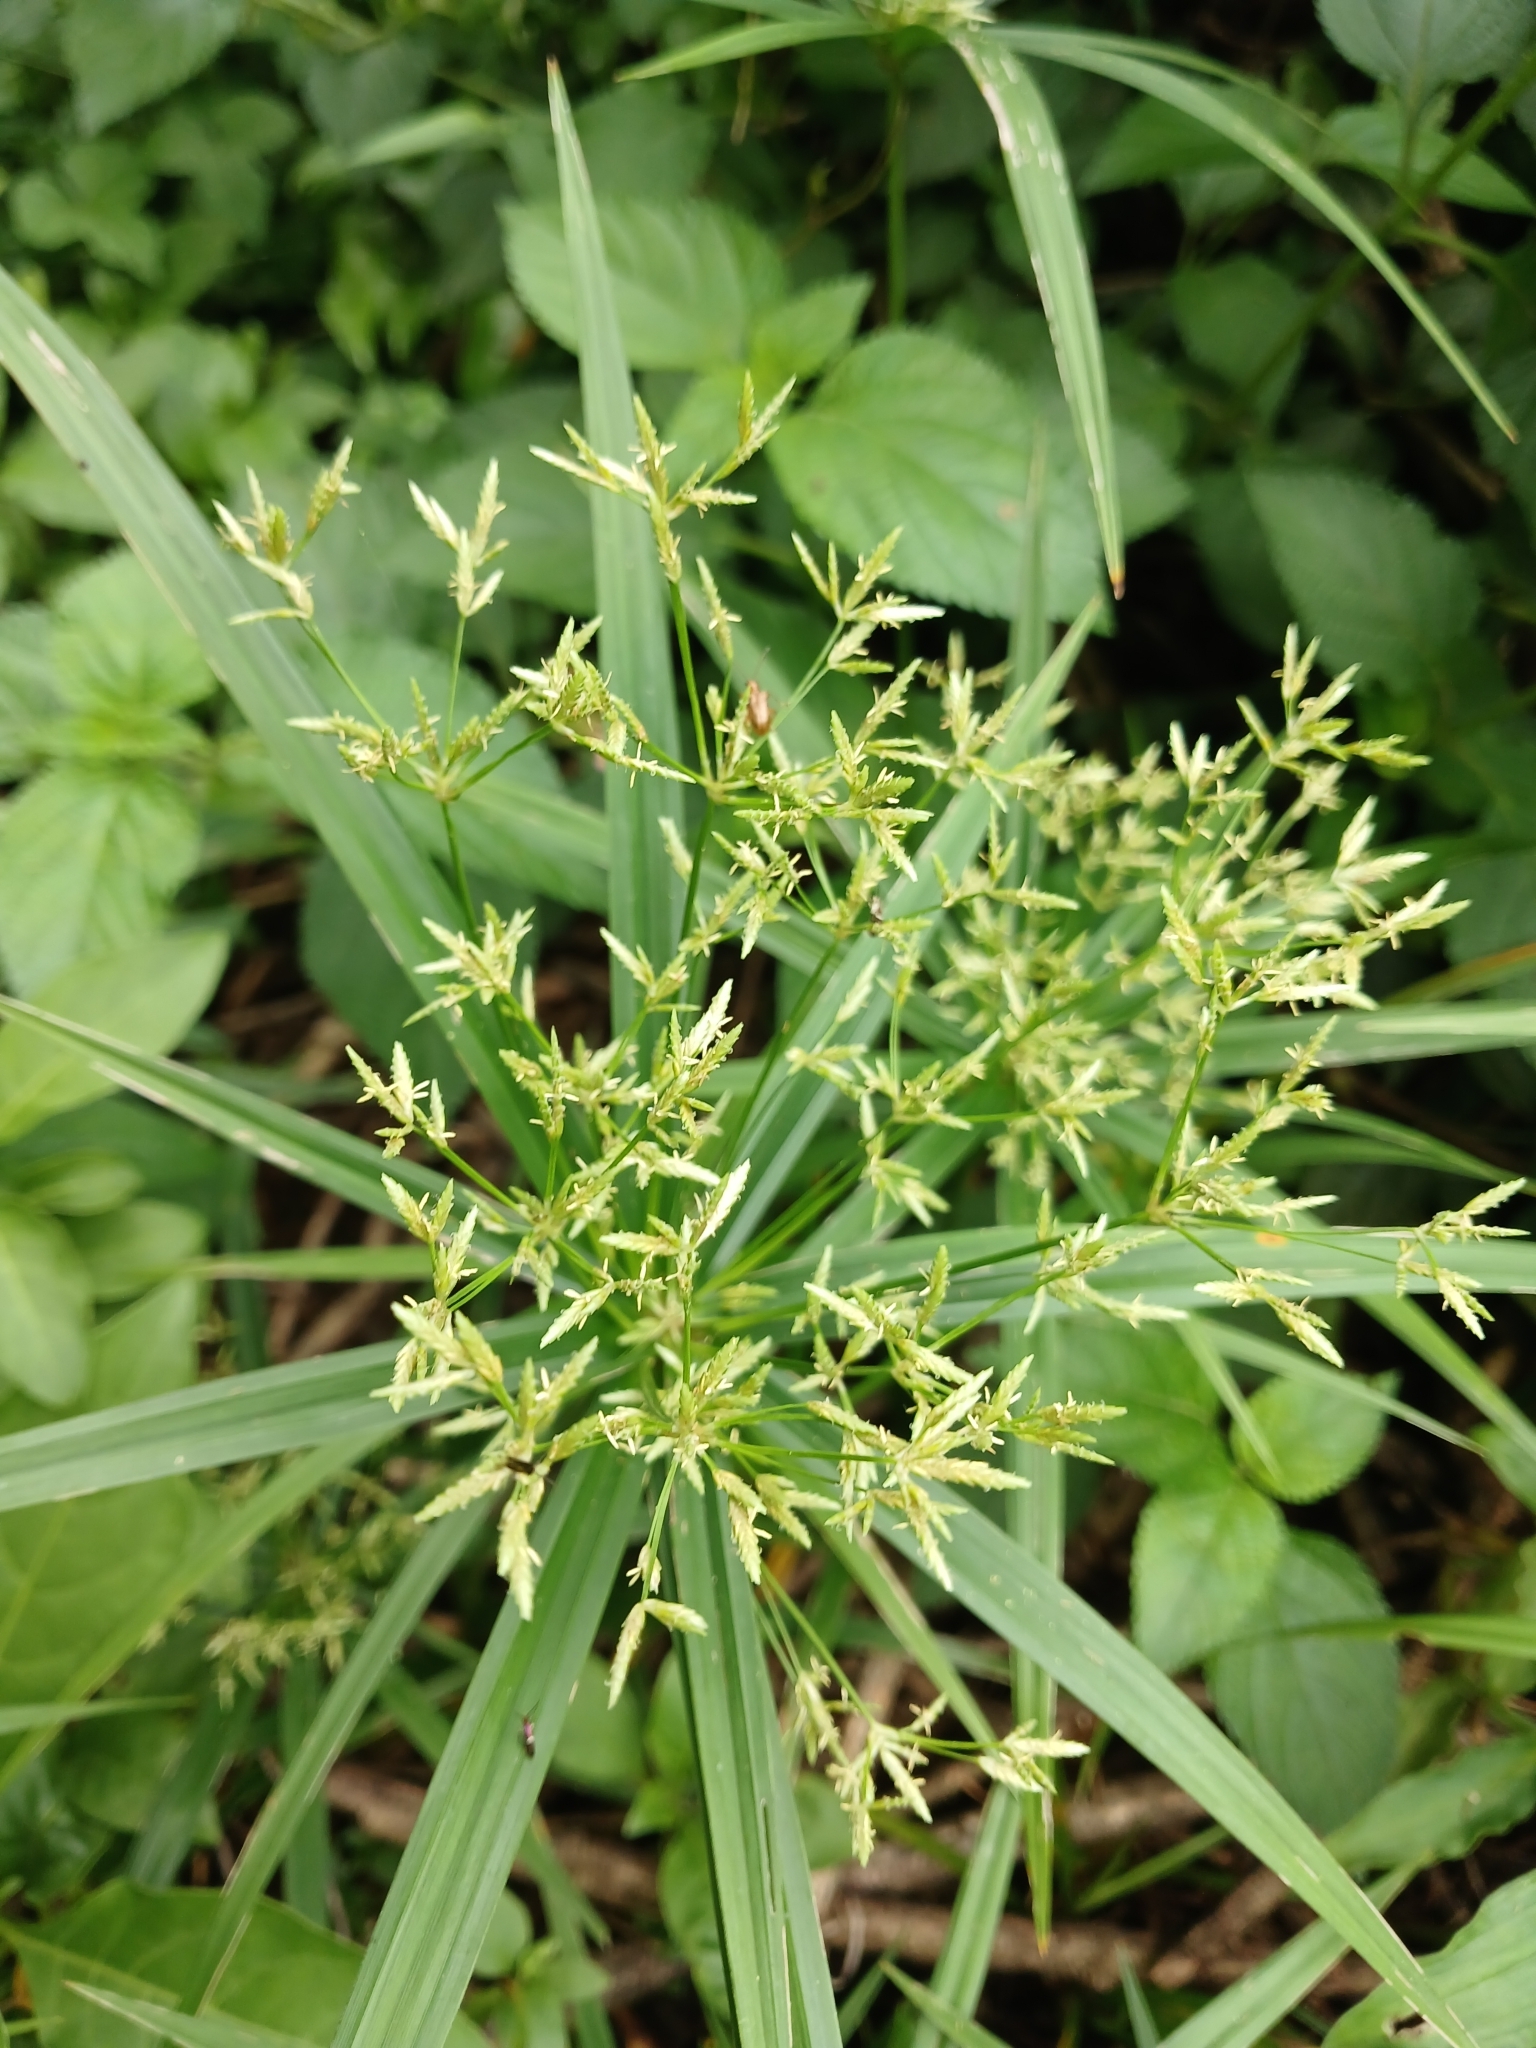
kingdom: Plantae
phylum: Tracheophyta
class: Liliopsida
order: Poales
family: Cyperaceae
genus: Cyperus
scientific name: Cyperus albostriatus
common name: Dwarf umbrella-grass
